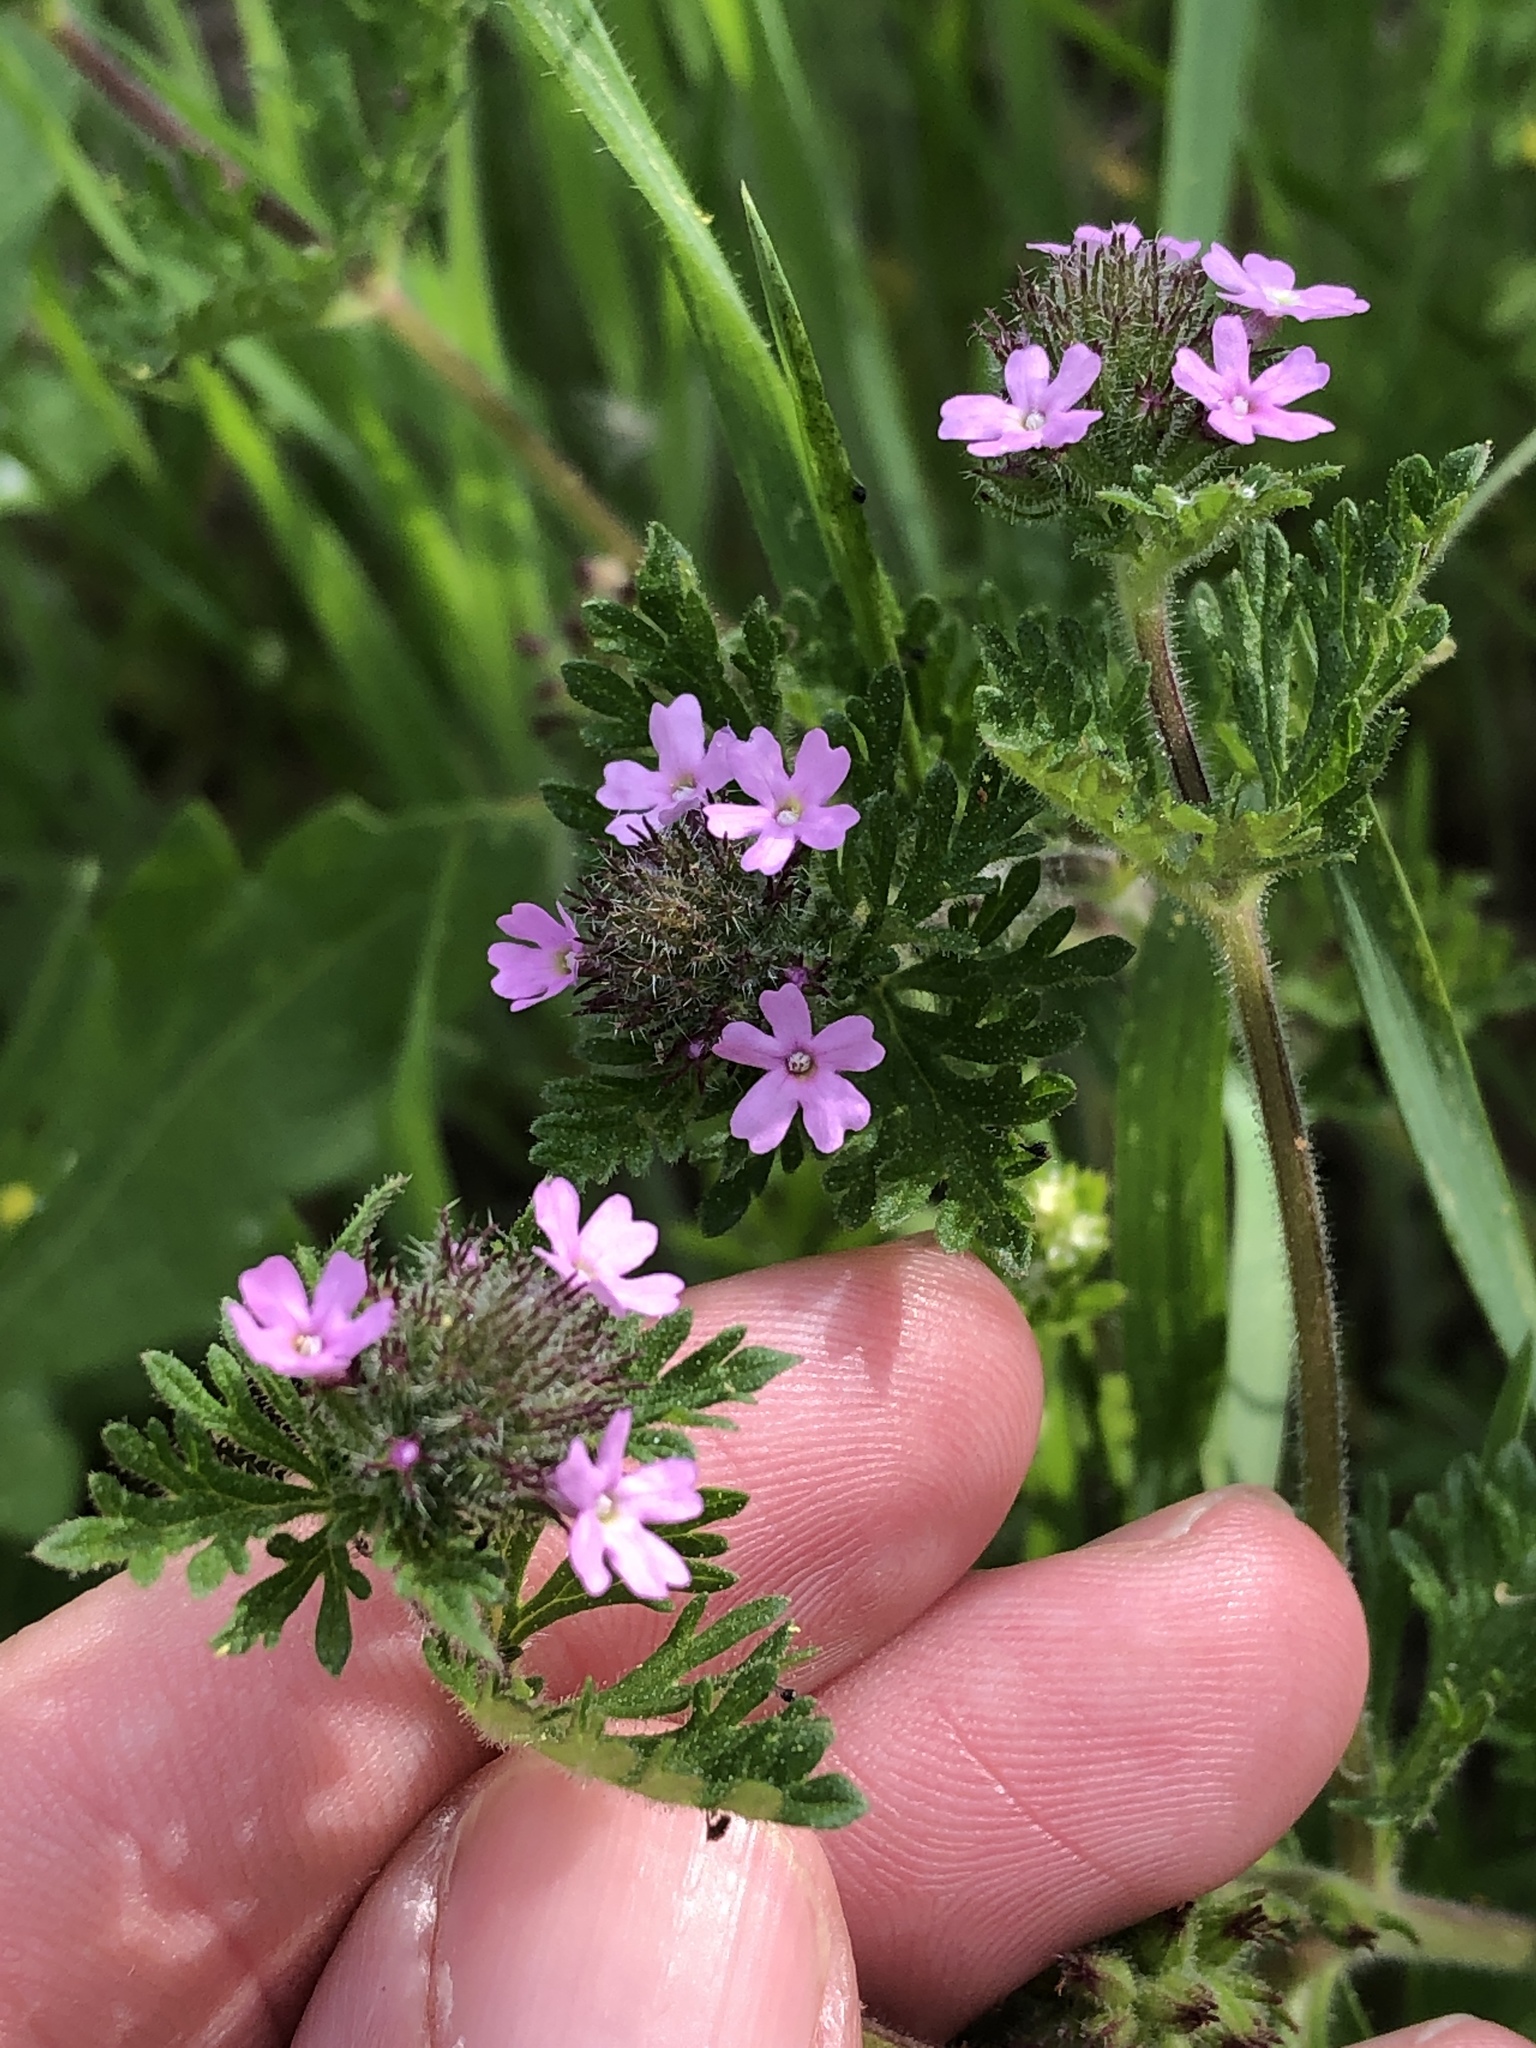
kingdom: Plantae
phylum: Tracheophyta
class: Magnoliopsida
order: Lamiales
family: Verbenaceae
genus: Verbena
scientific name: Verbena pumila
